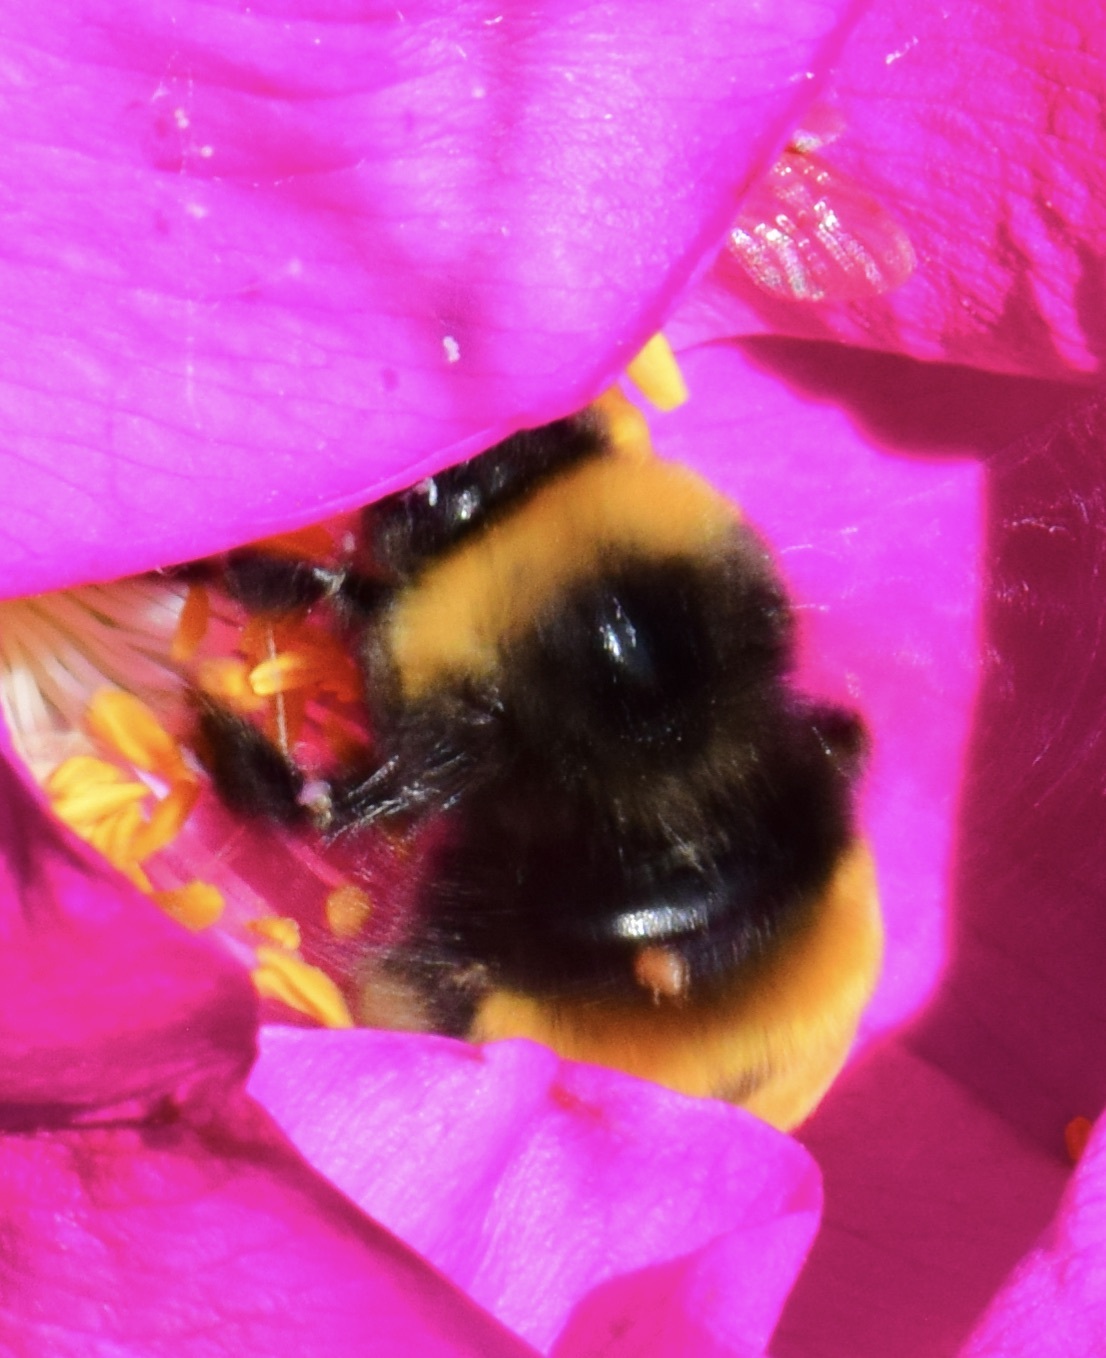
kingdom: Animalia
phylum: Arthropoda
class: Insecta
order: Hymenoptera
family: Apidae
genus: Bombus
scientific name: Bombus terricola
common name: Yellow-banded bumble bee
